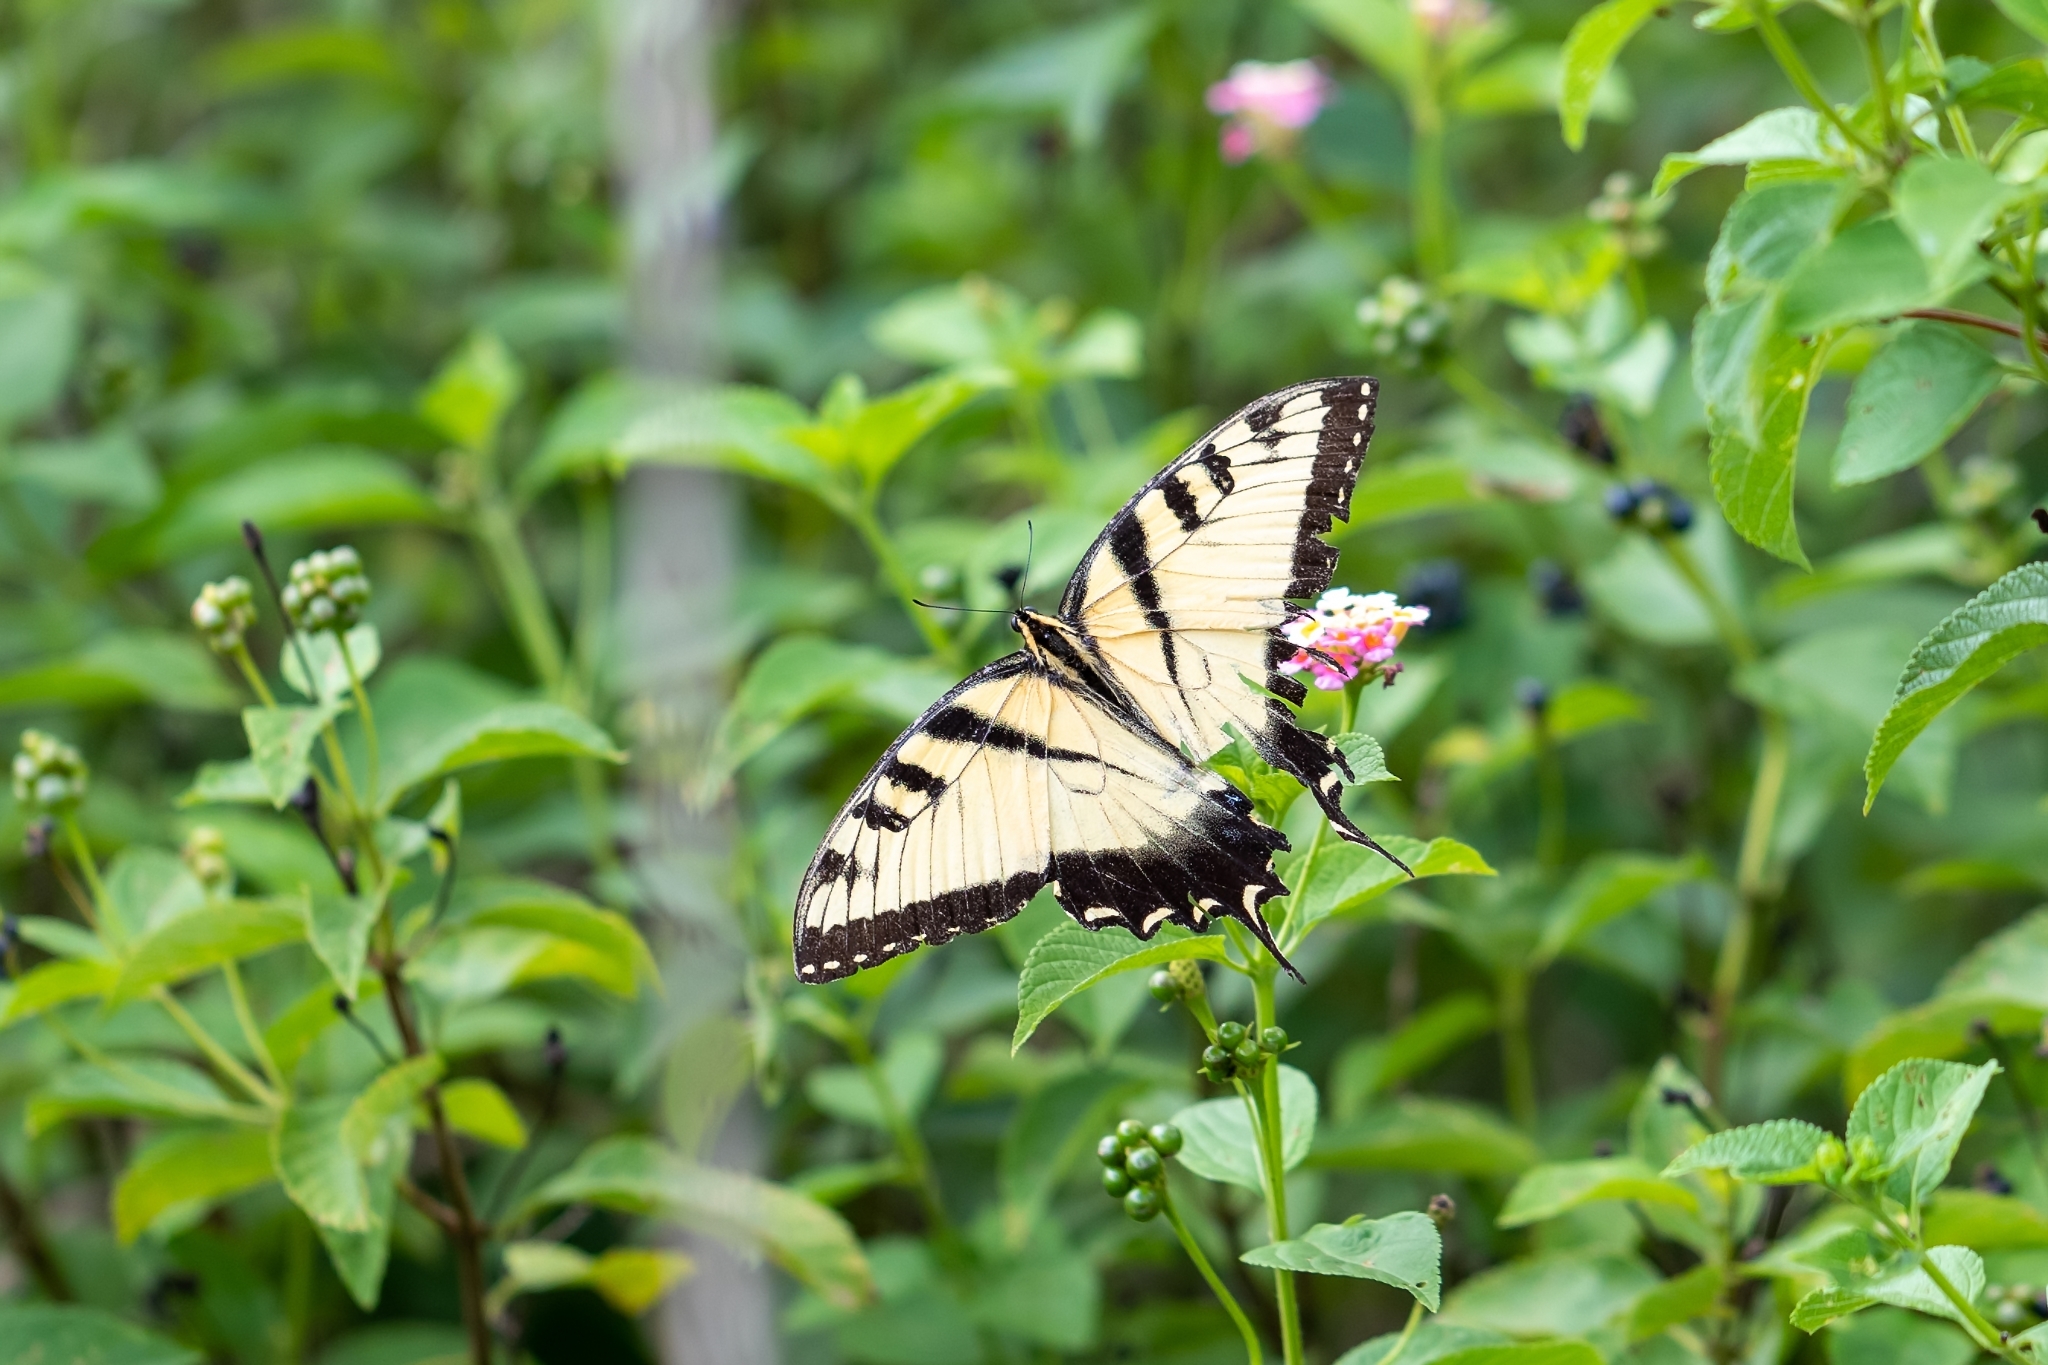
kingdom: Animalia
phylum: Arthropoda
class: Insecta
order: Lepidoptera
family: Papilionidae
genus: Papilio
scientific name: Papilio glaucus
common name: Tiger swallowtail
